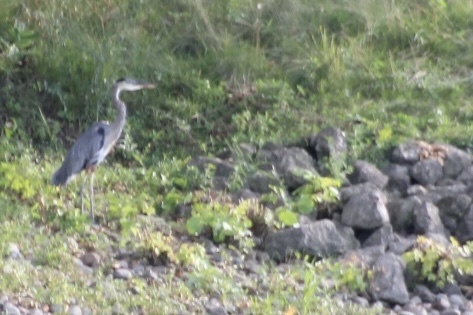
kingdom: Animalia
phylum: Chordata
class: Aves
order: Pelecaniformes
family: Ardeidae
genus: Ardea
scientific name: Ardea herodias
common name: Great blue heron
